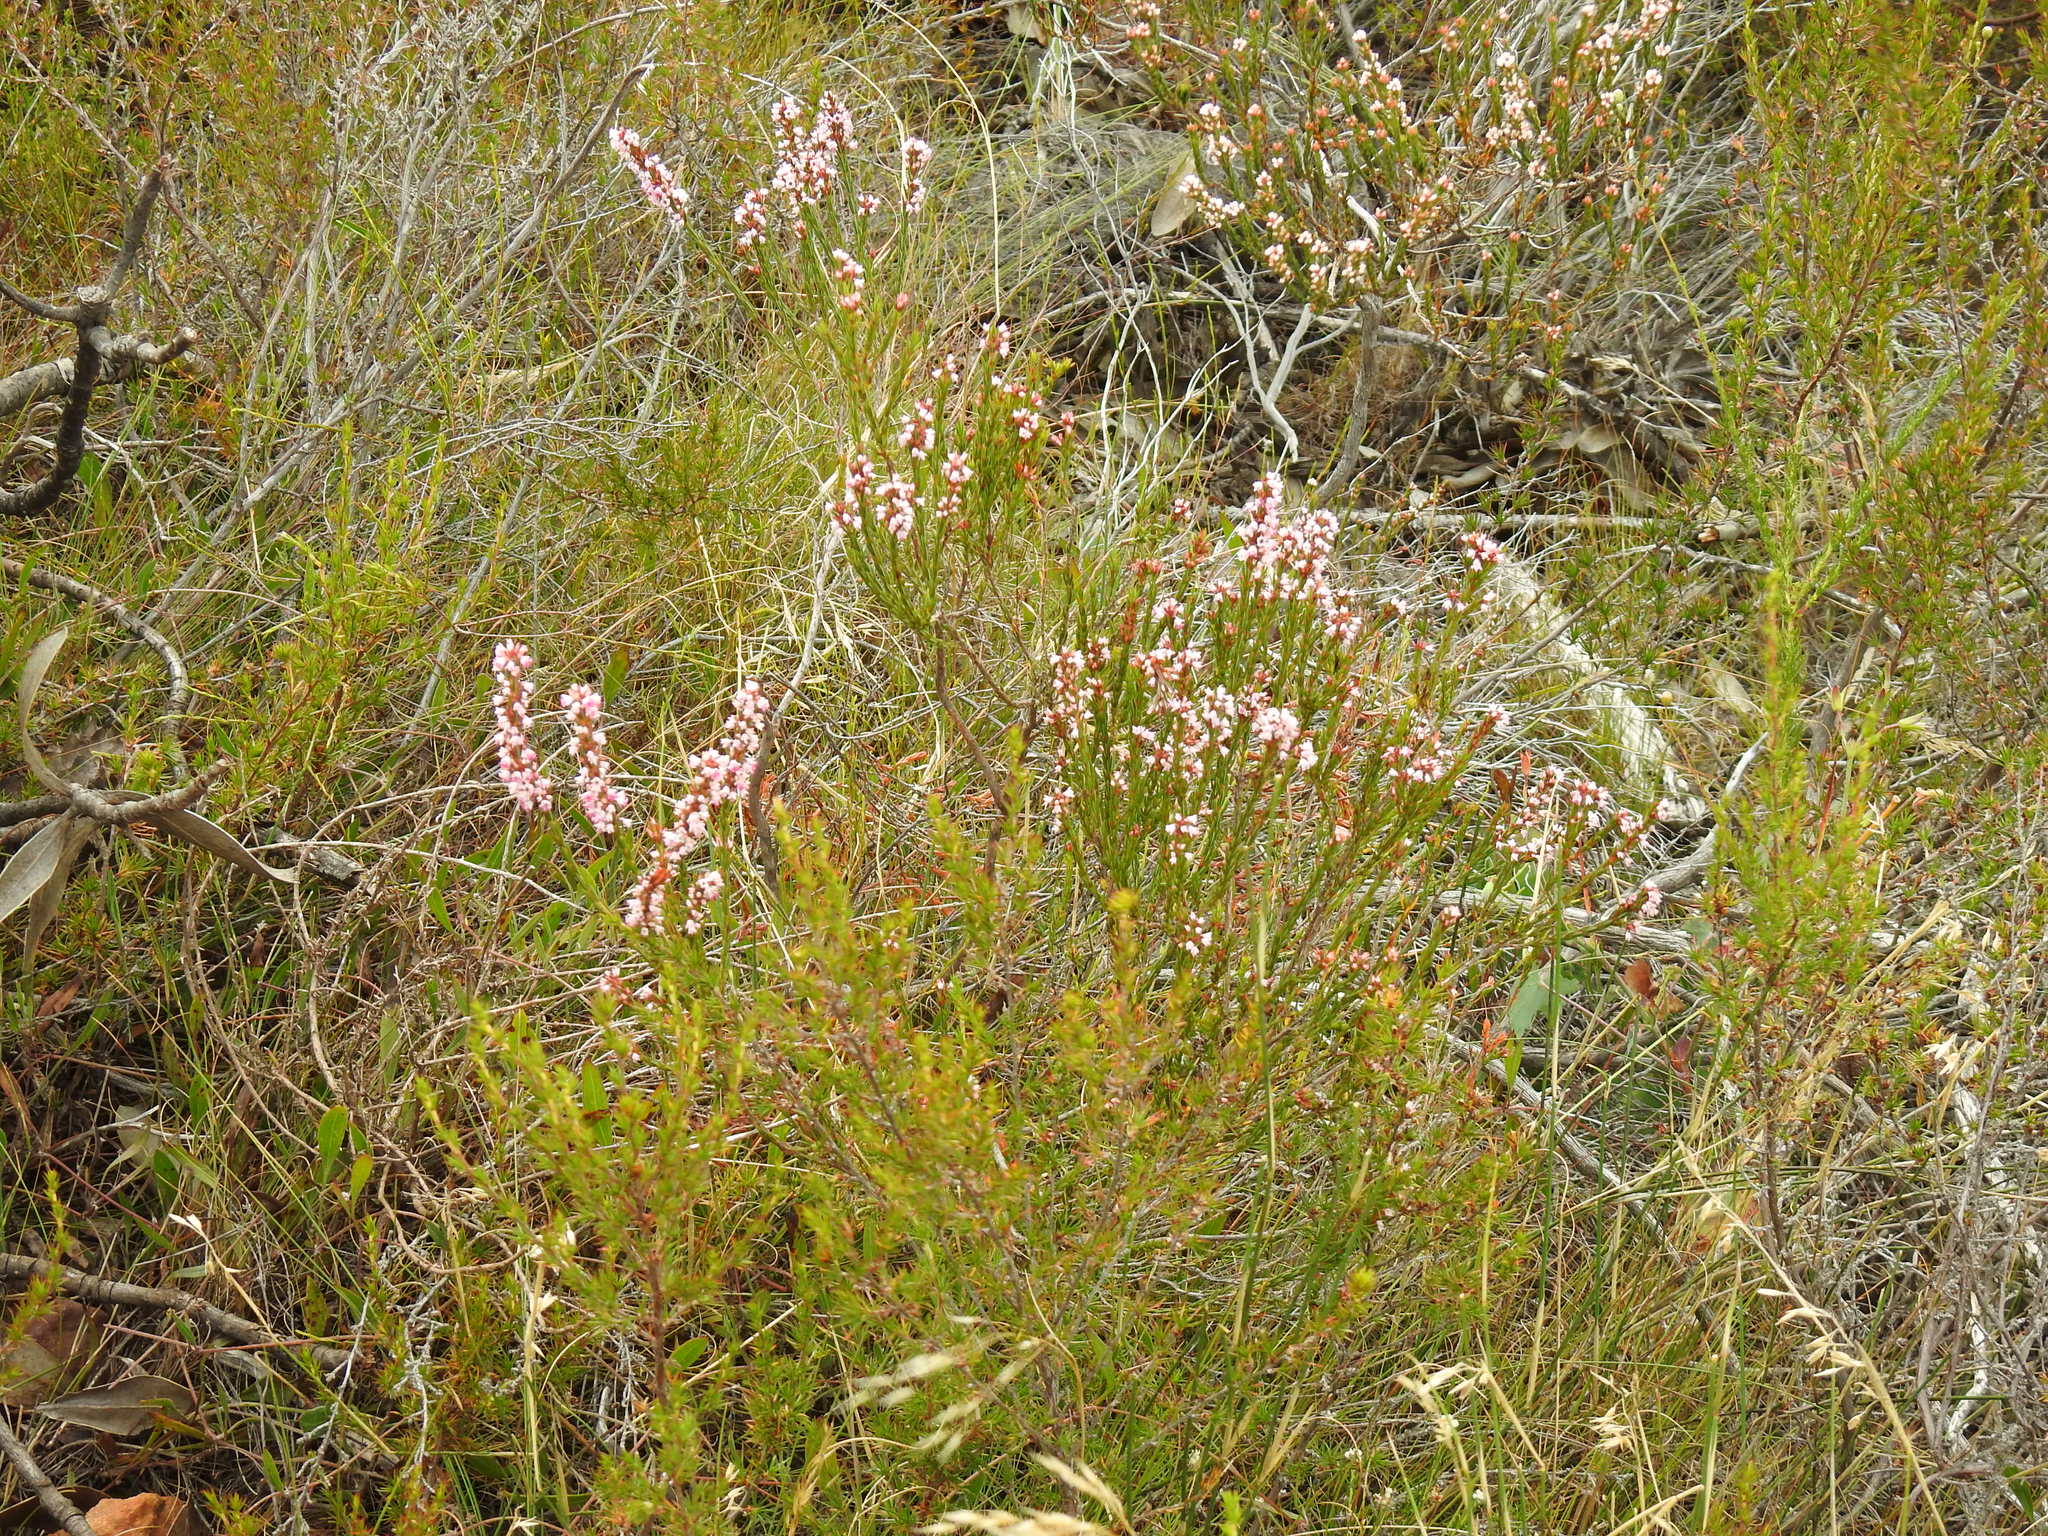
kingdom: Plantae
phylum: Tracheophyta
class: Magnoliopsida
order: Ericales
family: Ericaceae
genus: Erica
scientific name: Erica articularis
